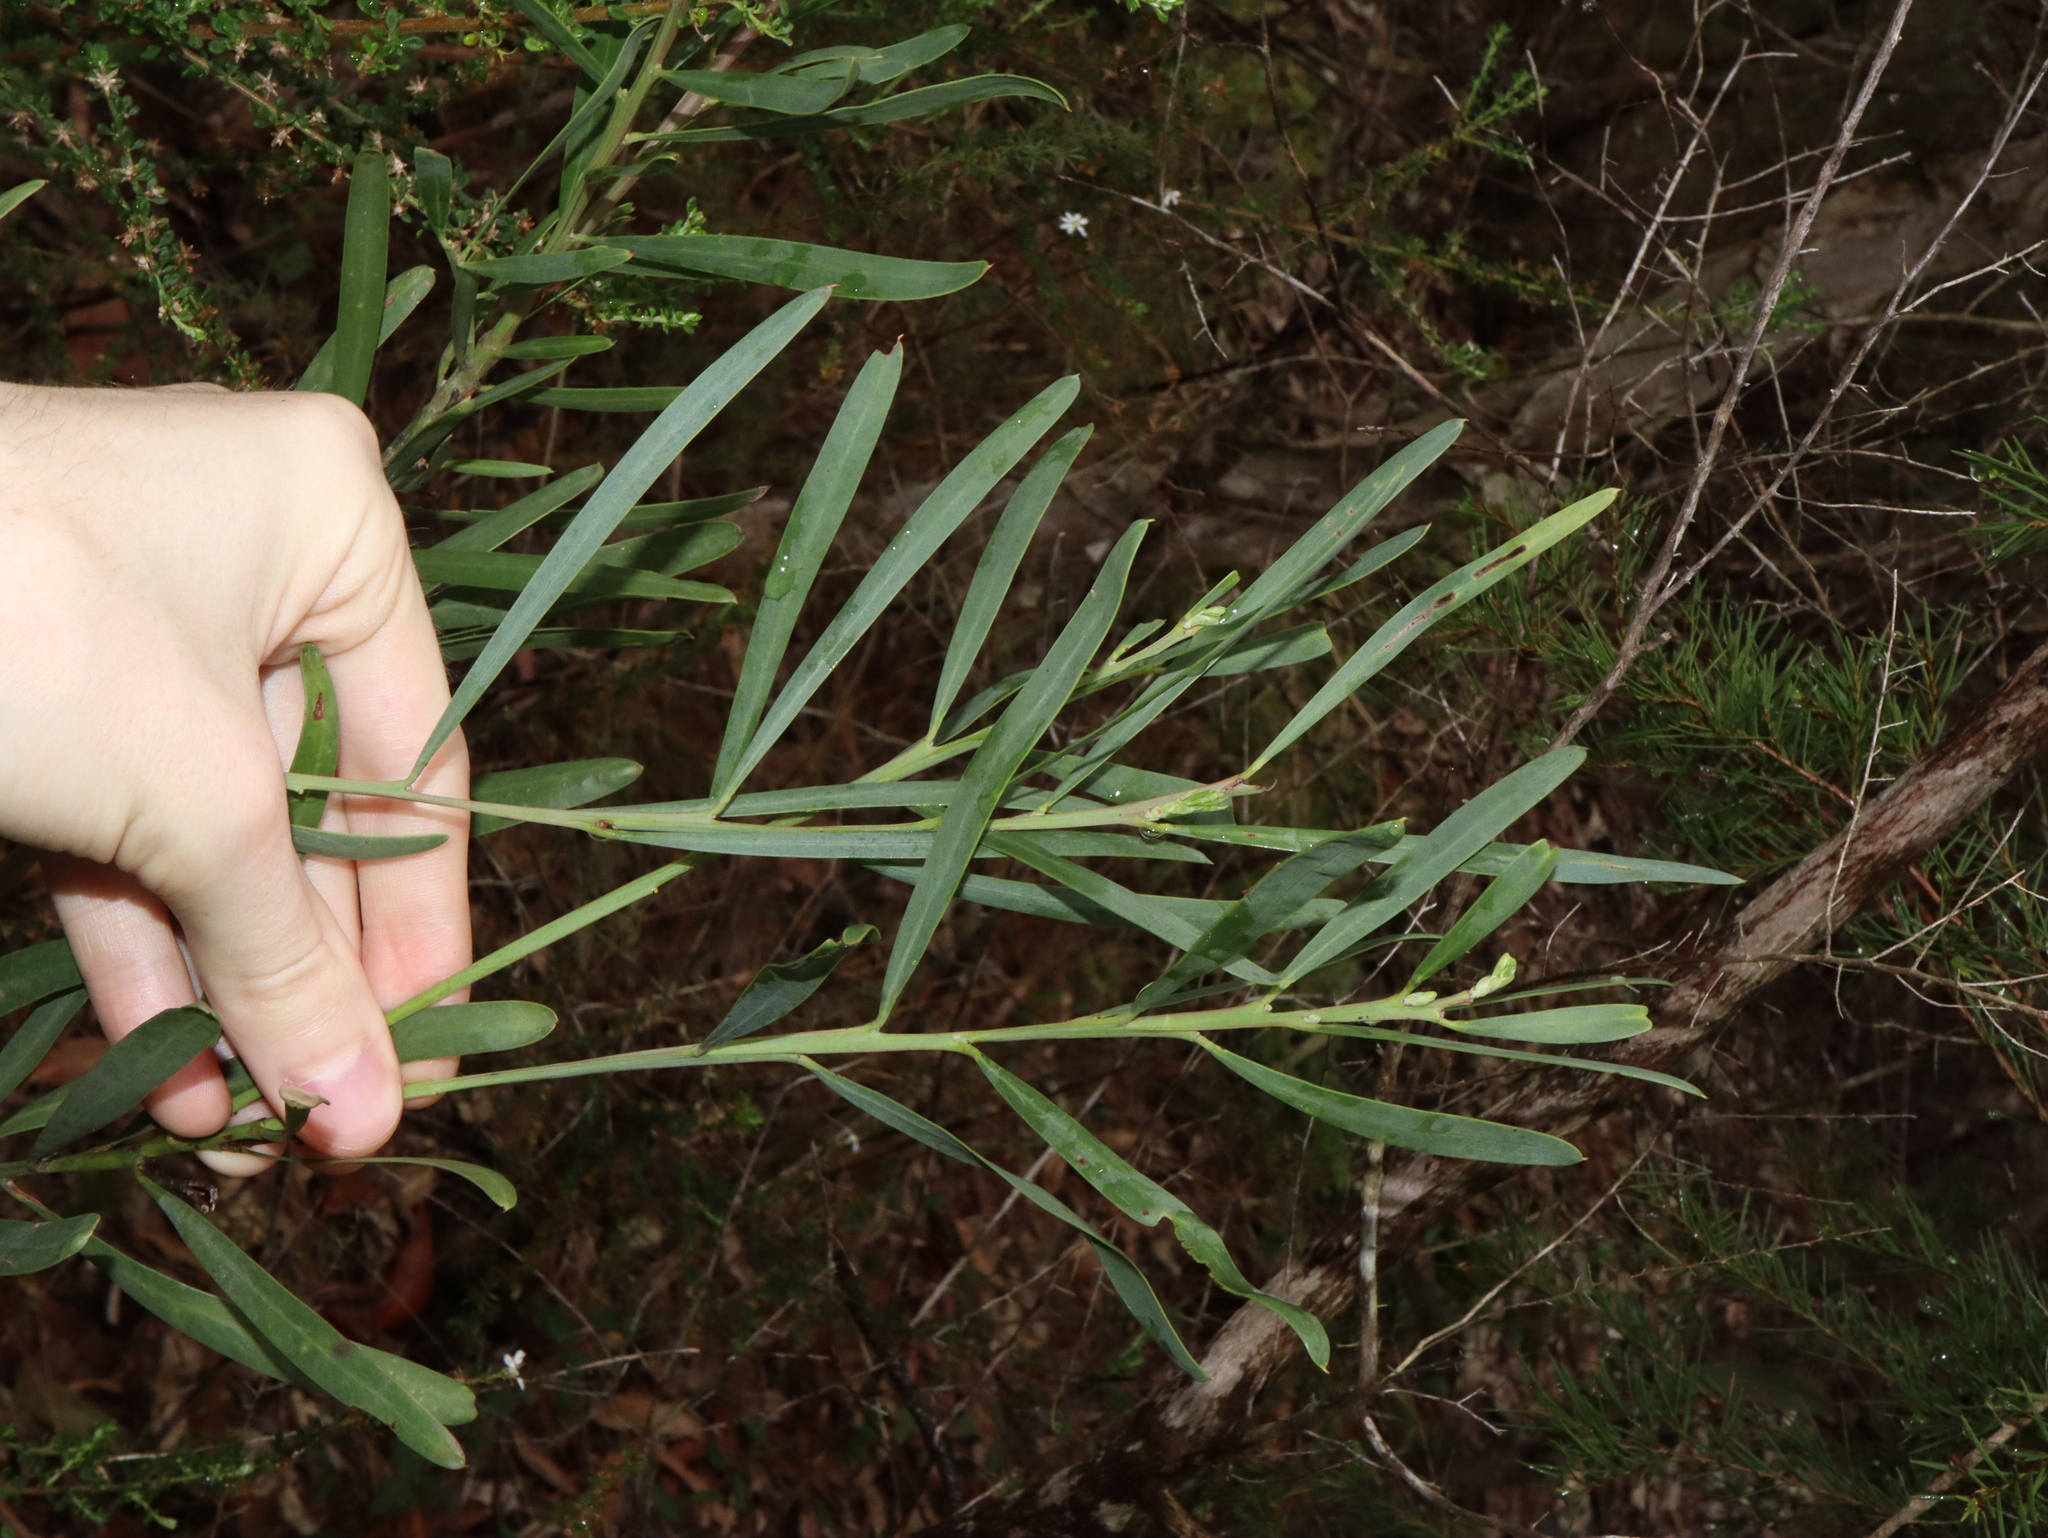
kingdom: Plantae
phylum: Tracheophyta
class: Magnoliopsida
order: Fabales
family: Fabaceae
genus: Acacia
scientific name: Acacia suaveolens
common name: Sweet acacia
